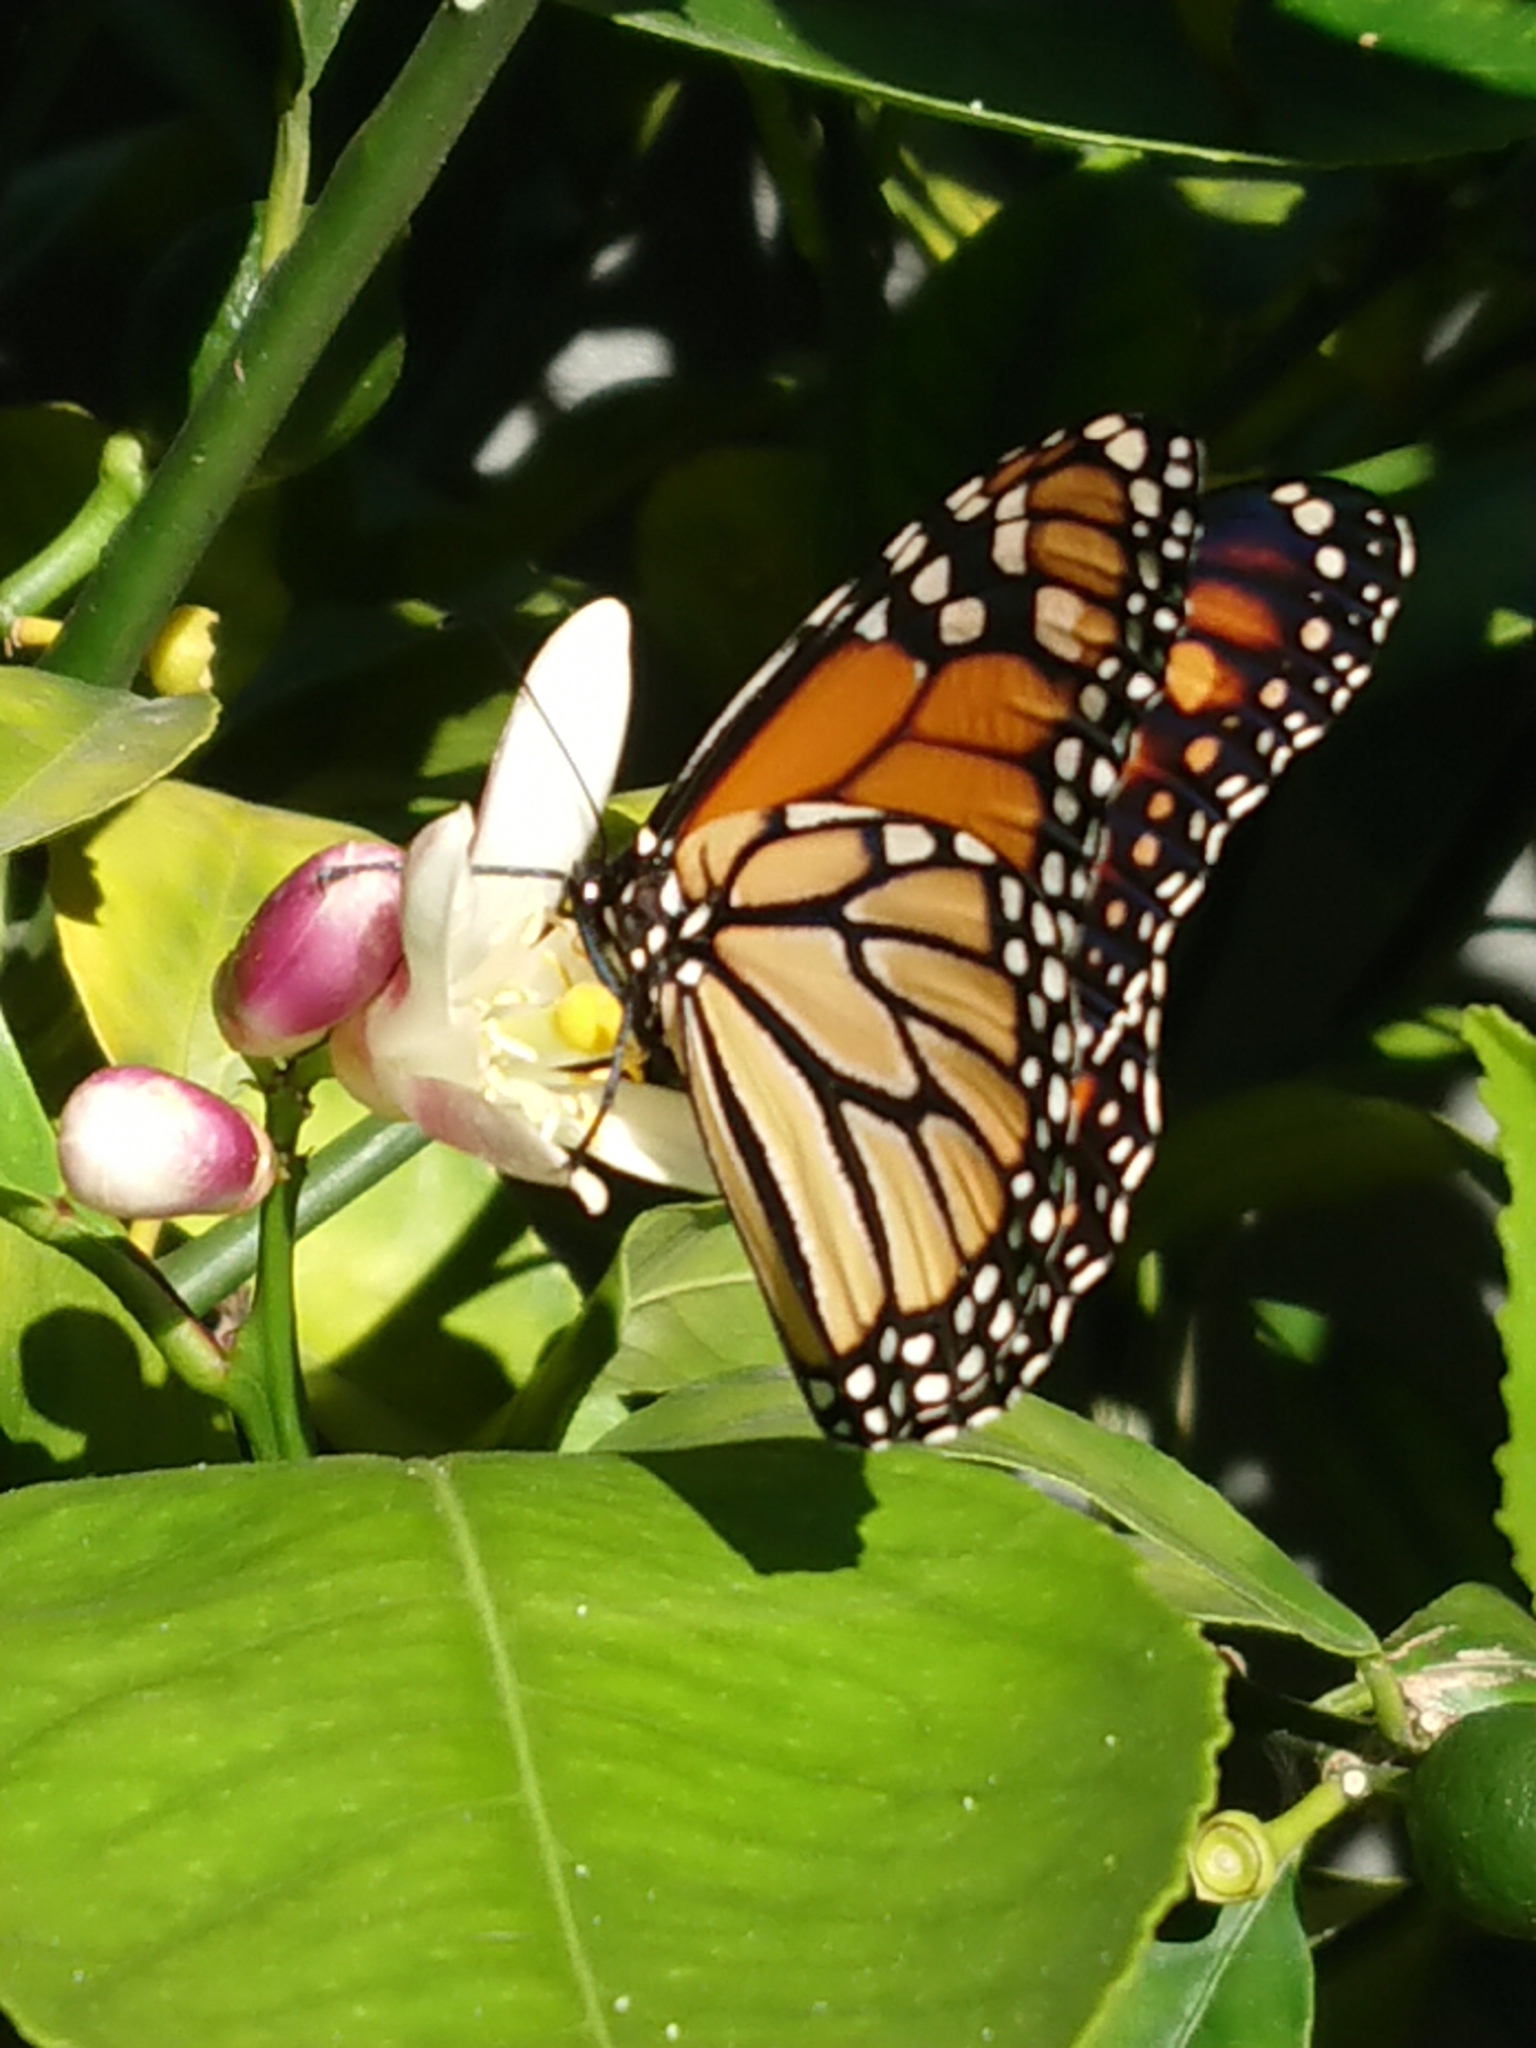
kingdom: Animalia
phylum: Arthropoda
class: Insecta
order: Lepidoptera
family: Nymphalidae
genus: Danaus
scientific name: Danaus plexippus
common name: Monarch
